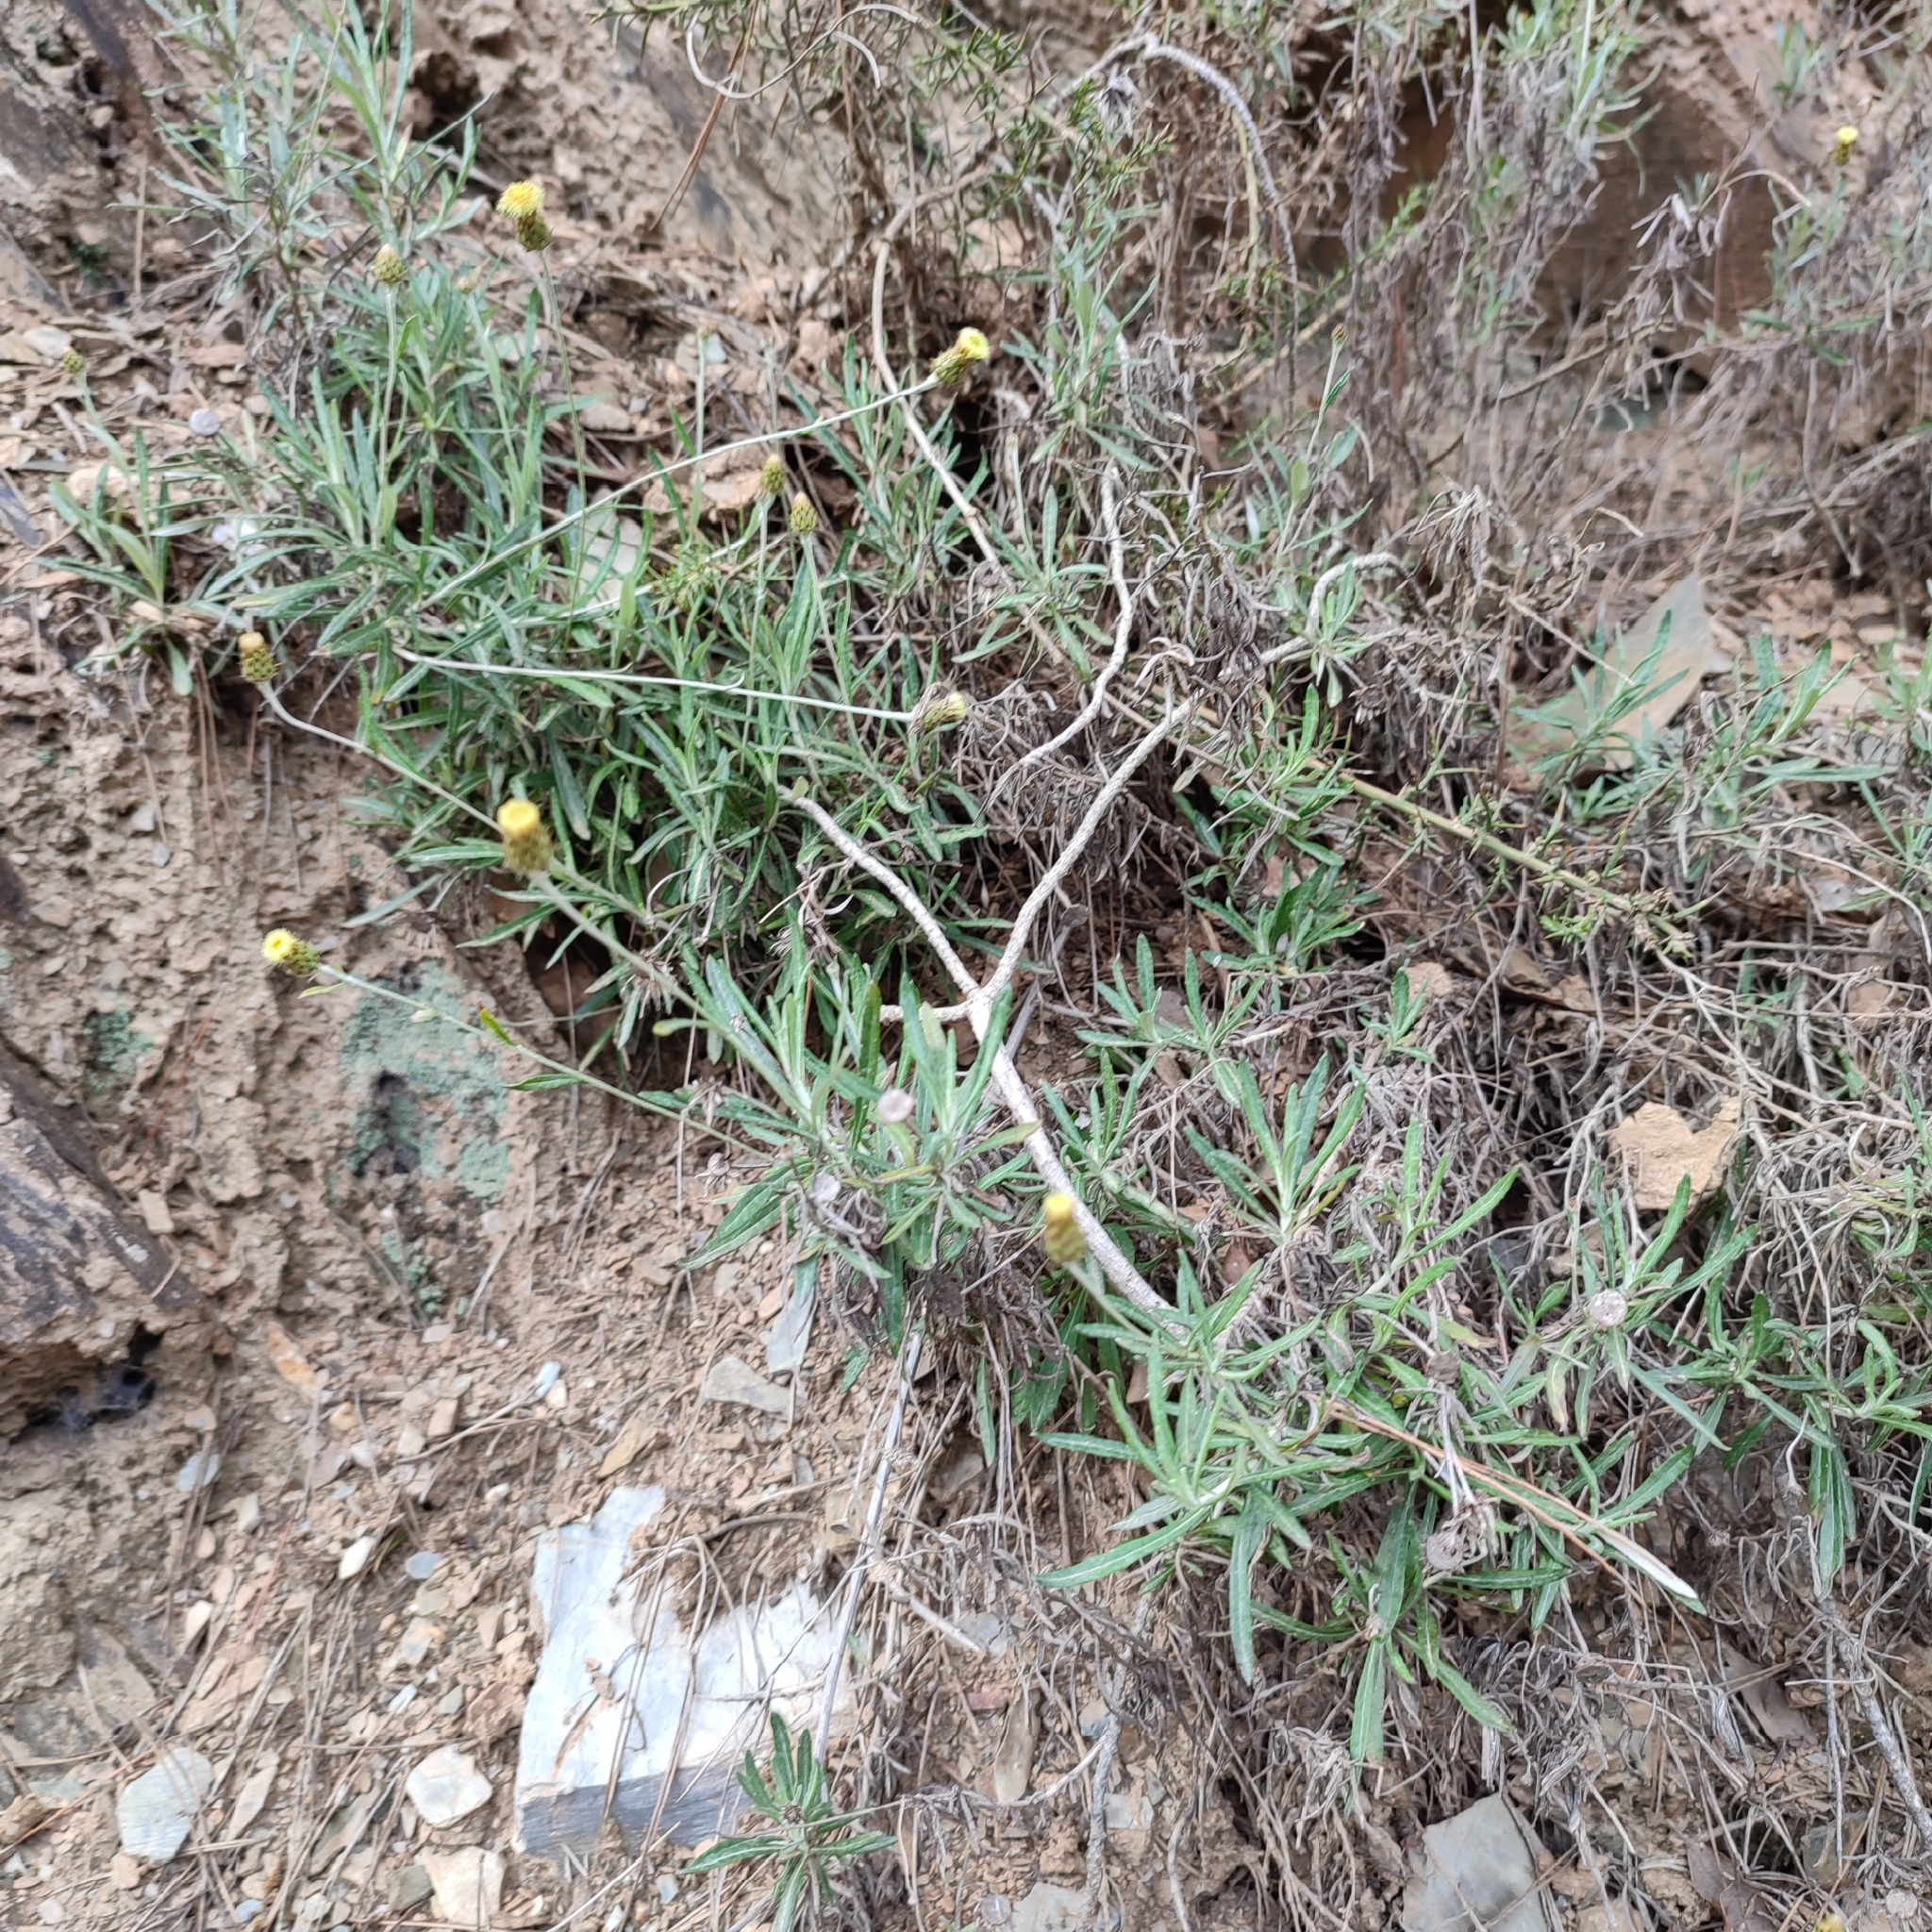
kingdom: Plantae
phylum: Tracheophyta
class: Magnoliopsida
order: Asterales
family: Asteraceae
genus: Phagnalon
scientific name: Phagnalon saxatile
